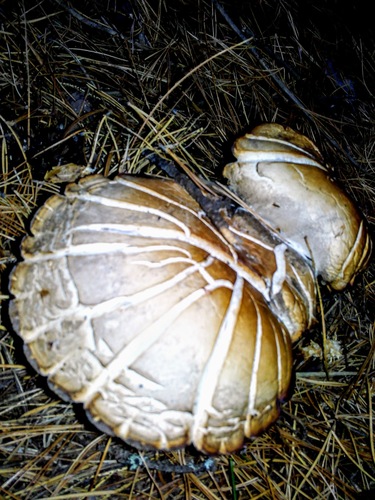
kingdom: Fungi
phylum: Basidiomycota
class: Agaricomycetes
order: Agaricales
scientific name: Agaricales
